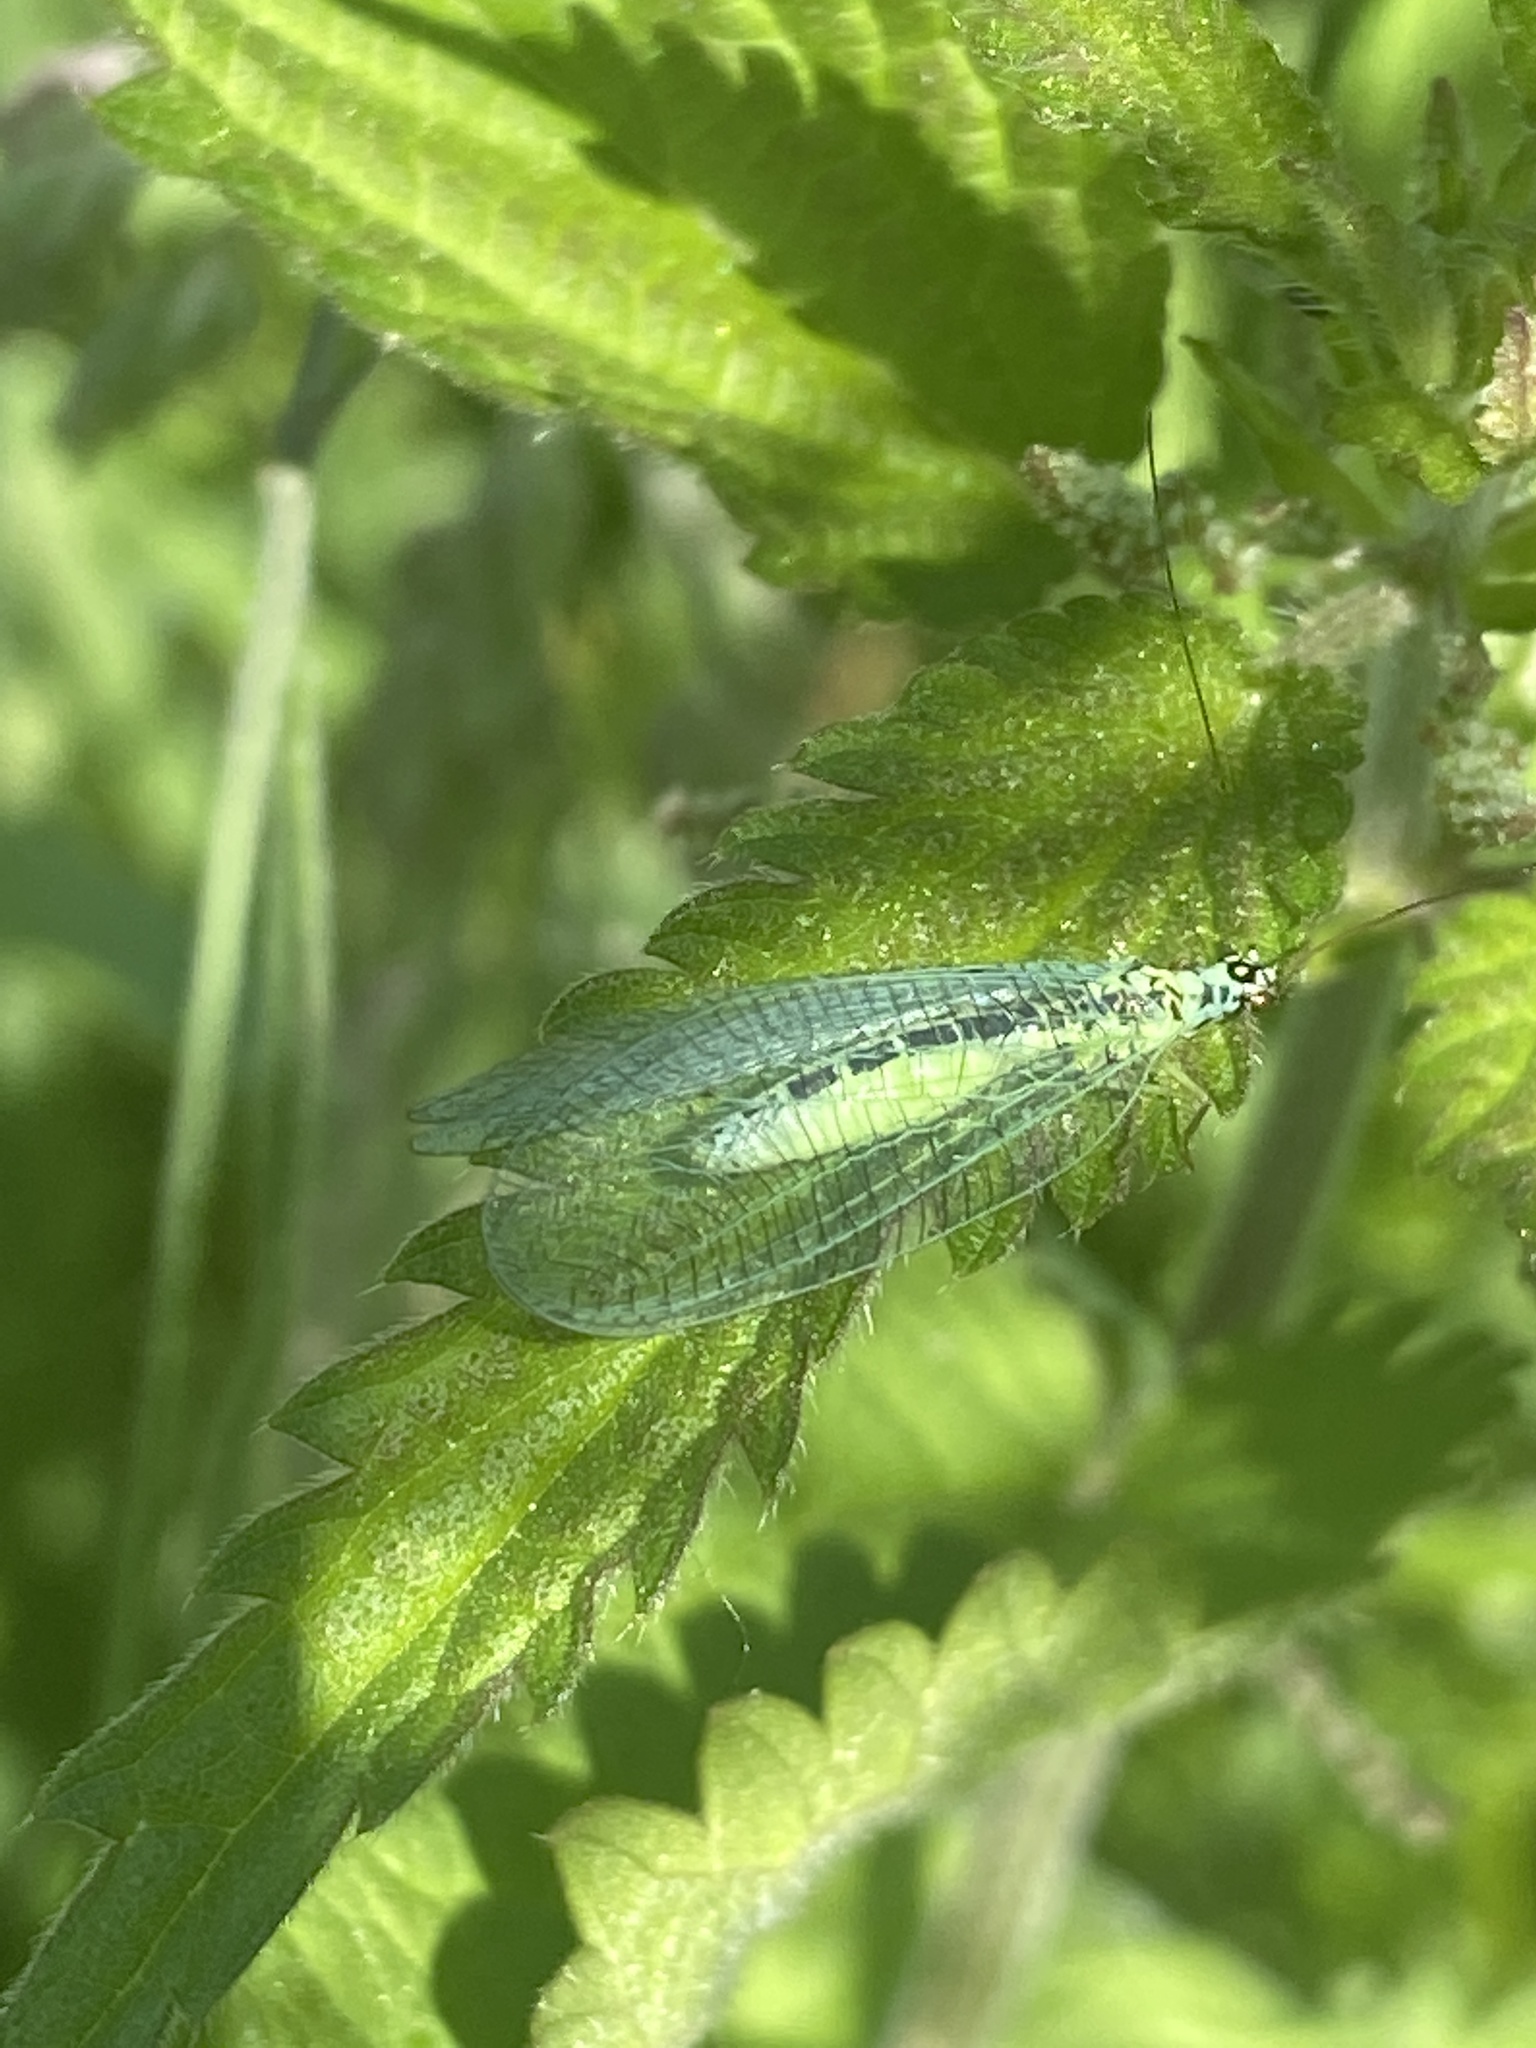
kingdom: Animalia
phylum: Arthropoda
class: Insecta
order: Neuroptera
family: Chrysopidae
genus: Chrysopa
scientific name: Chrysopa perla
